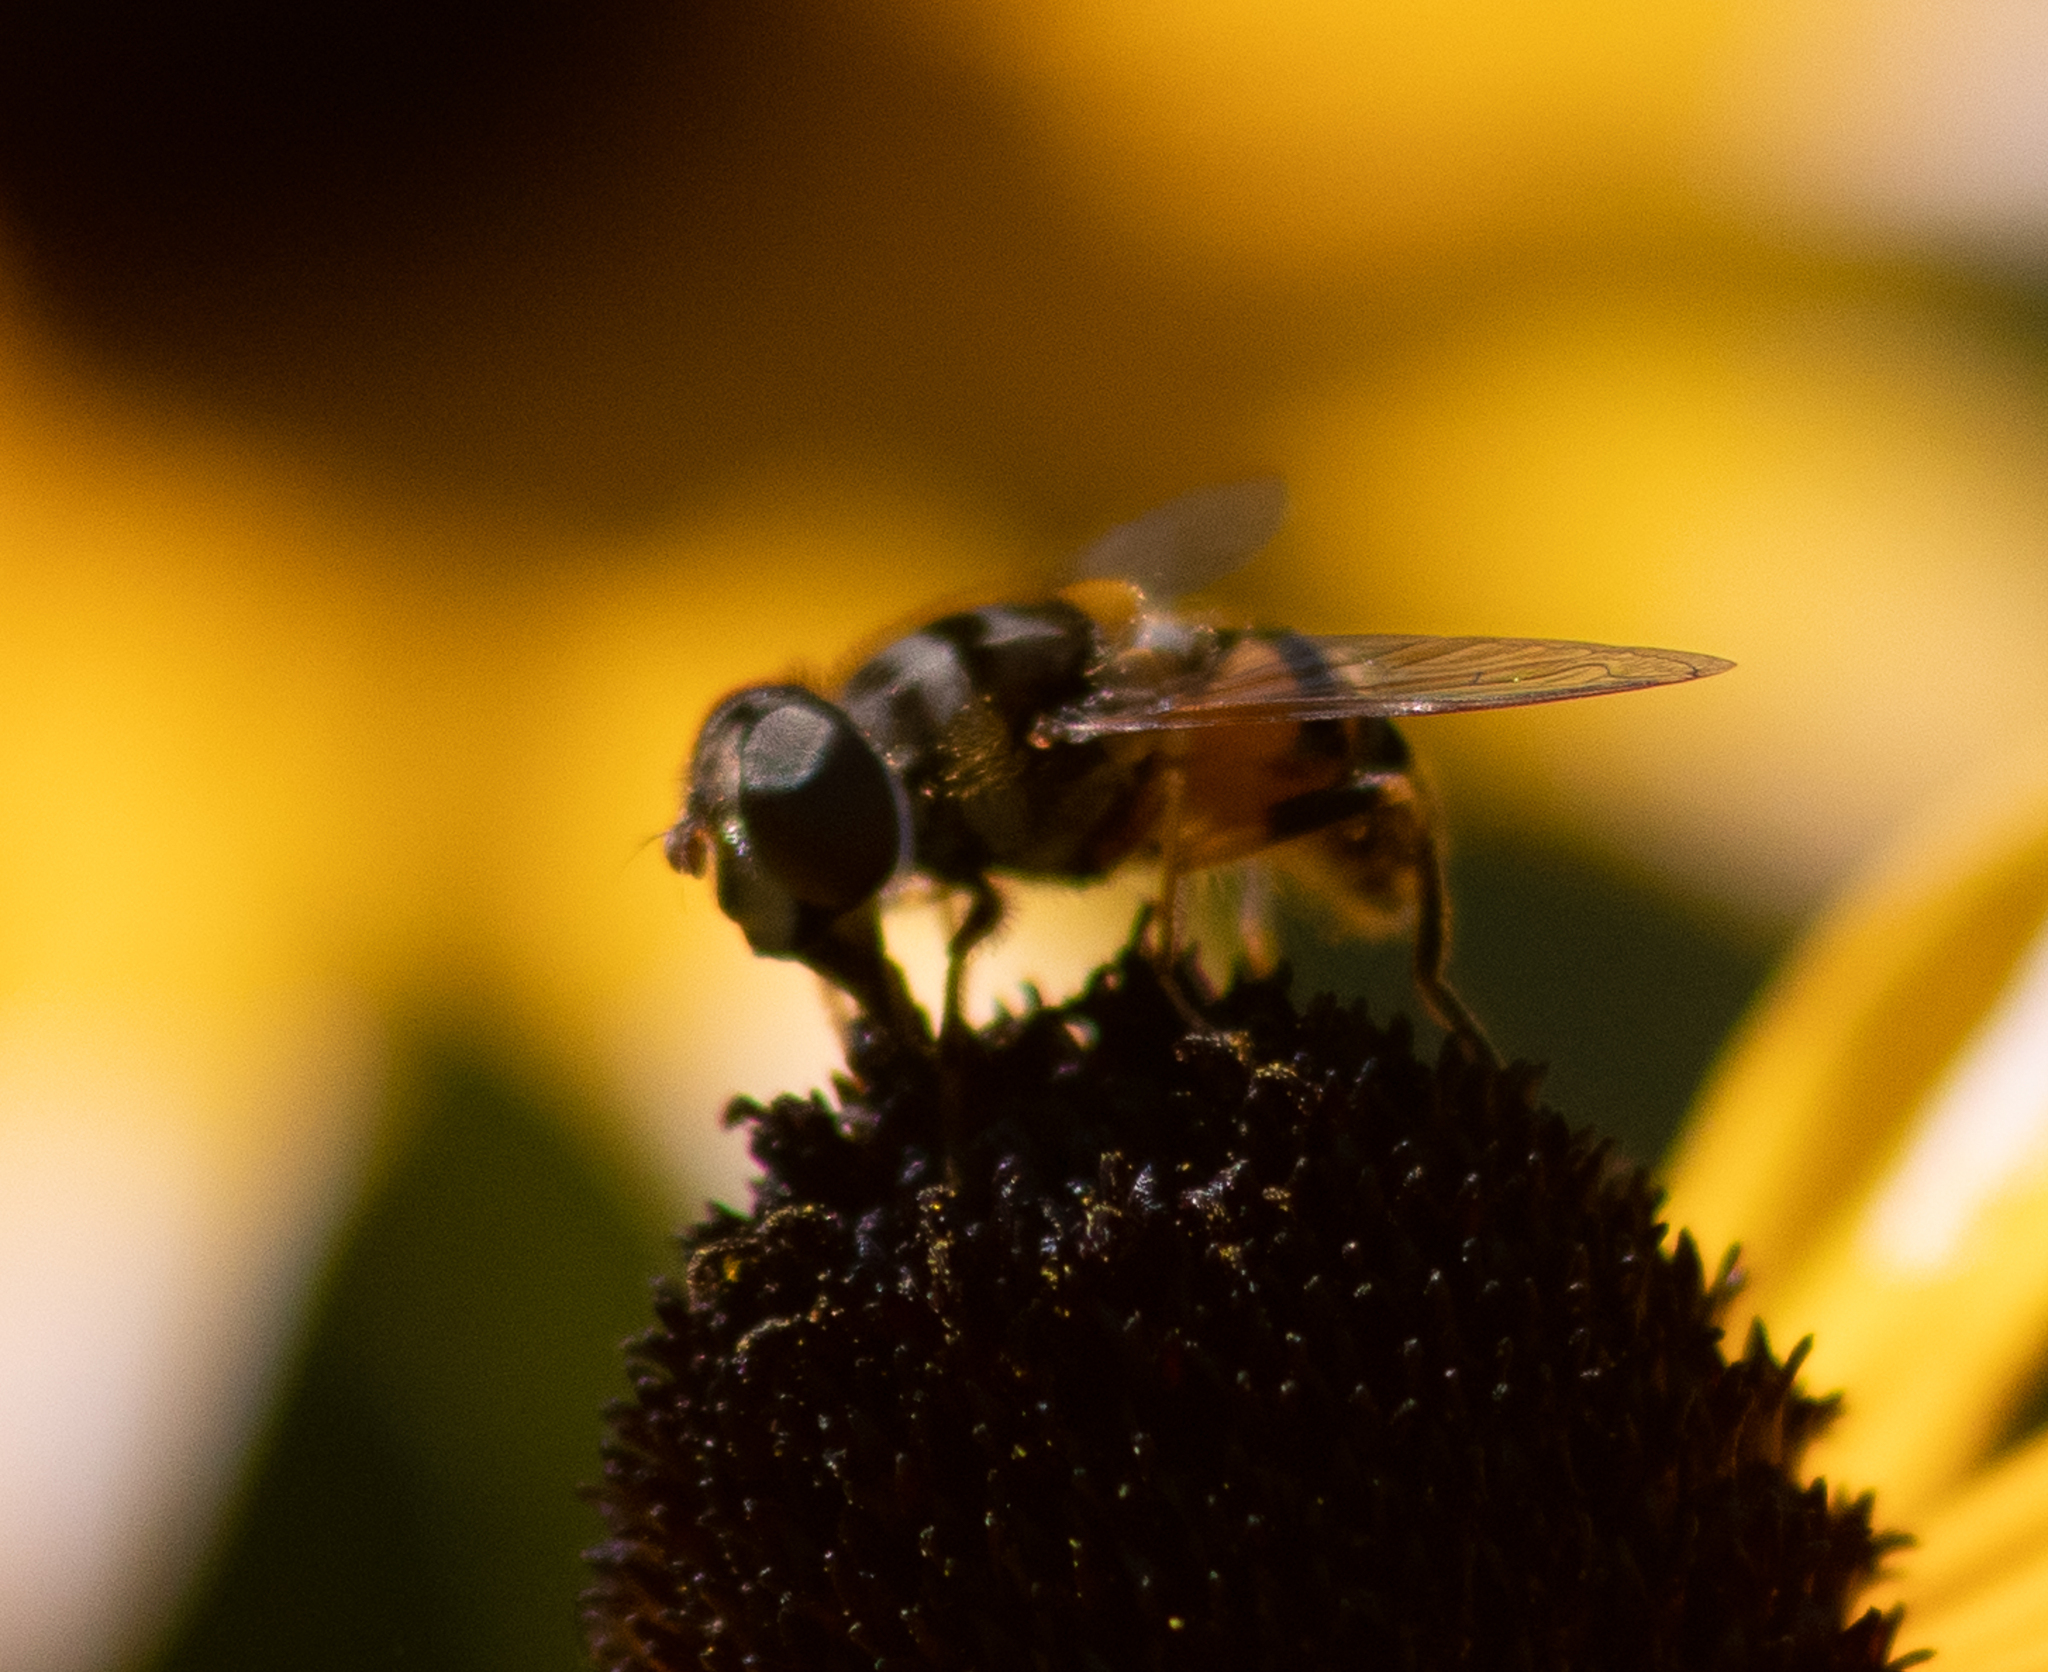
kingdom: Animalia
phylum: Arthropoda
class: Insecta
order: Diptera
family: Syrphidae
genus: Eristalis
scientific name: Eristalis transversa
